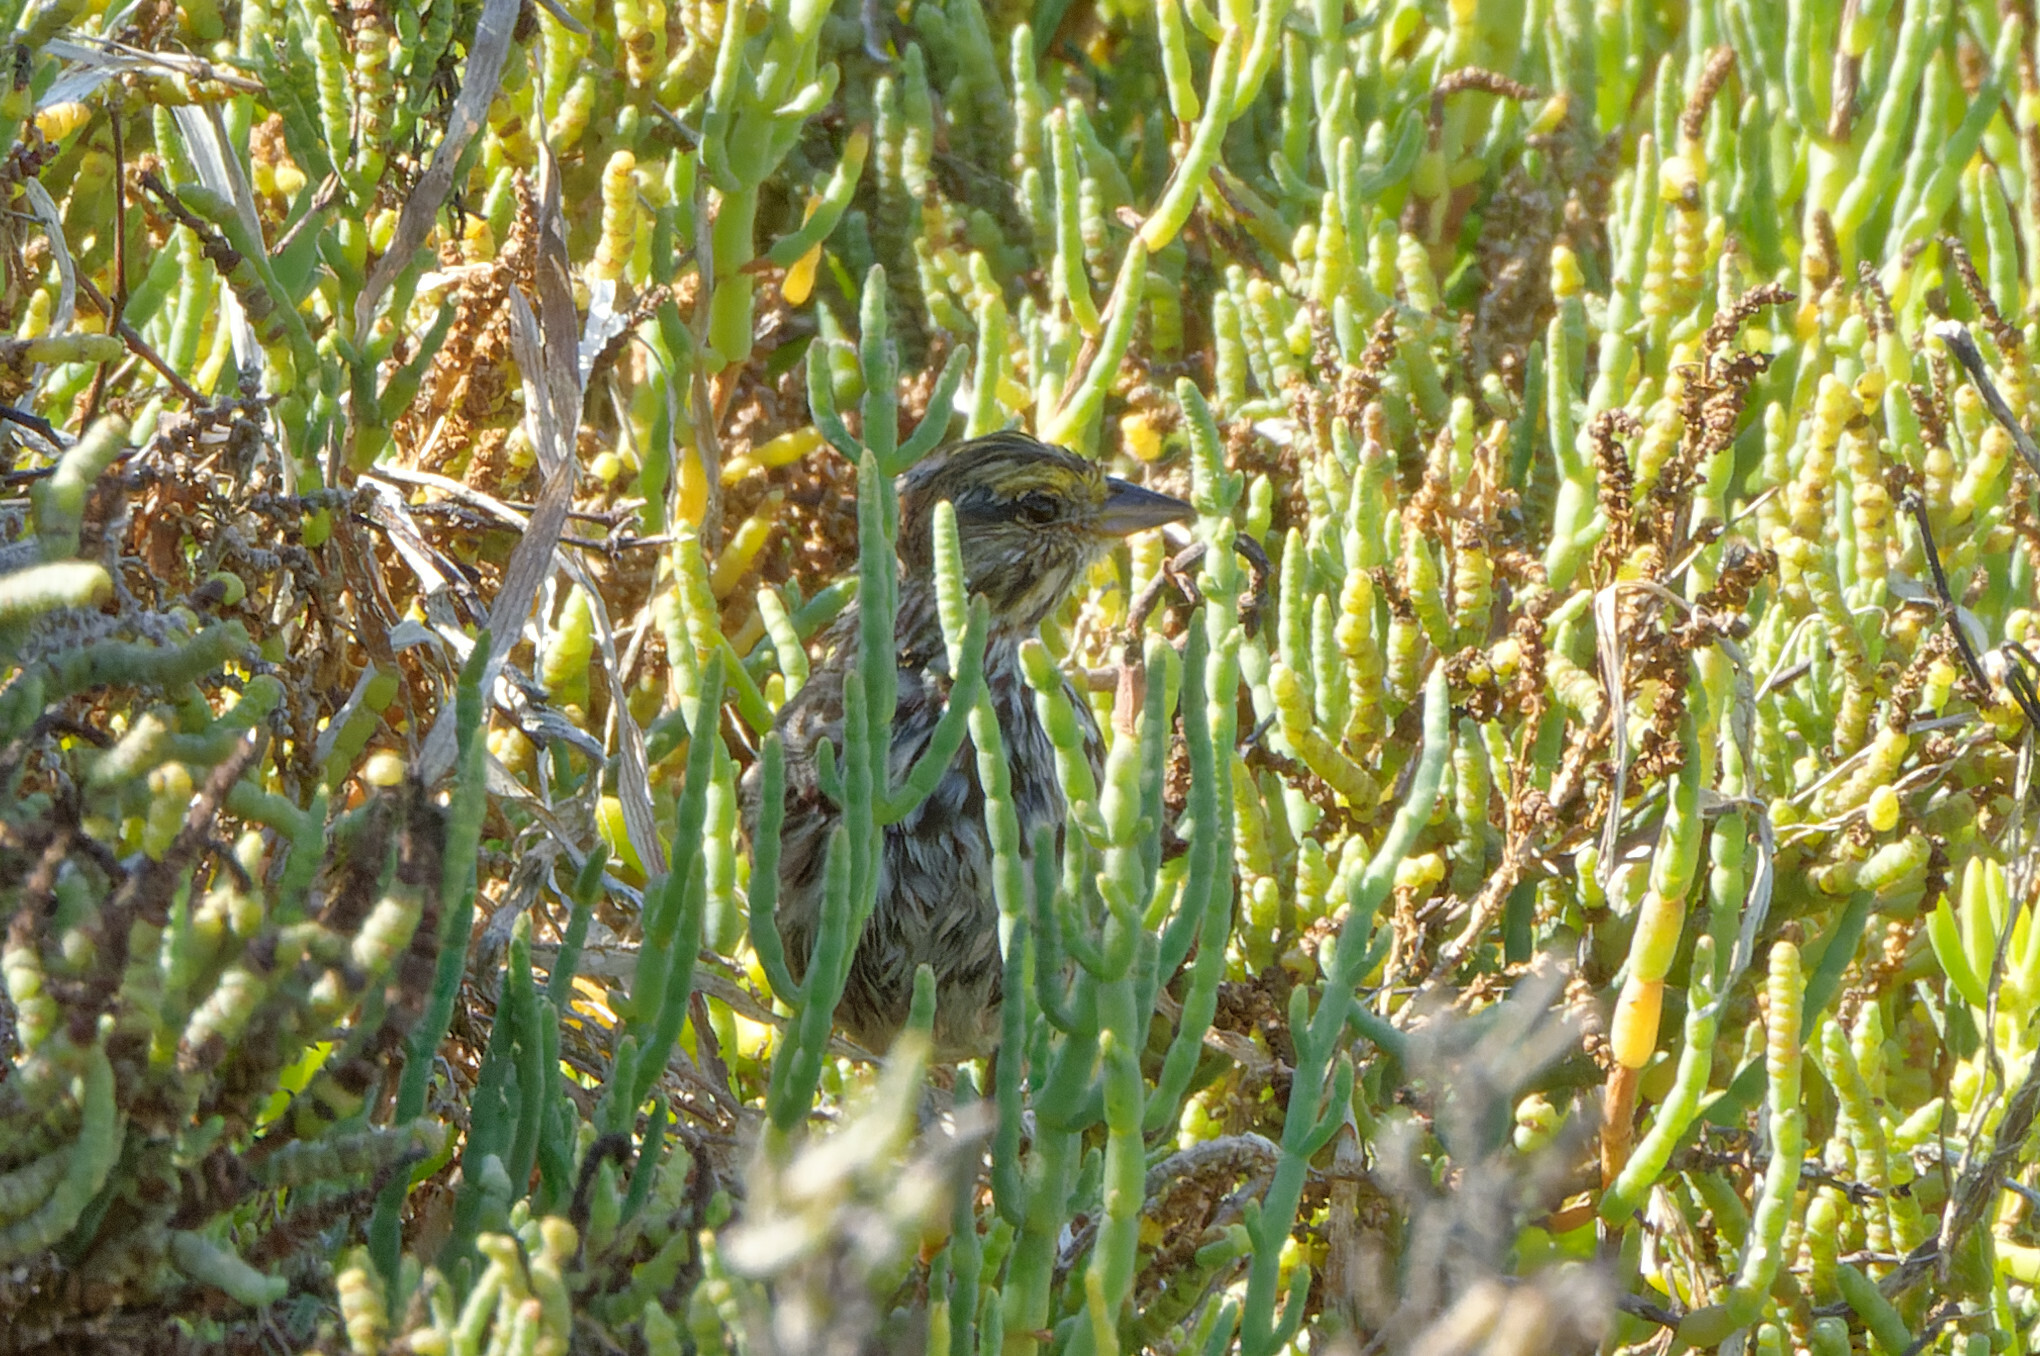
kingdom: Animalia
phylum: Chordata
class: Aves
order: Passeriformes
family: Passerellidae
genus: Passerculus
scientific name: Passerculus sandwichensis
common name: Savannah sparrow
